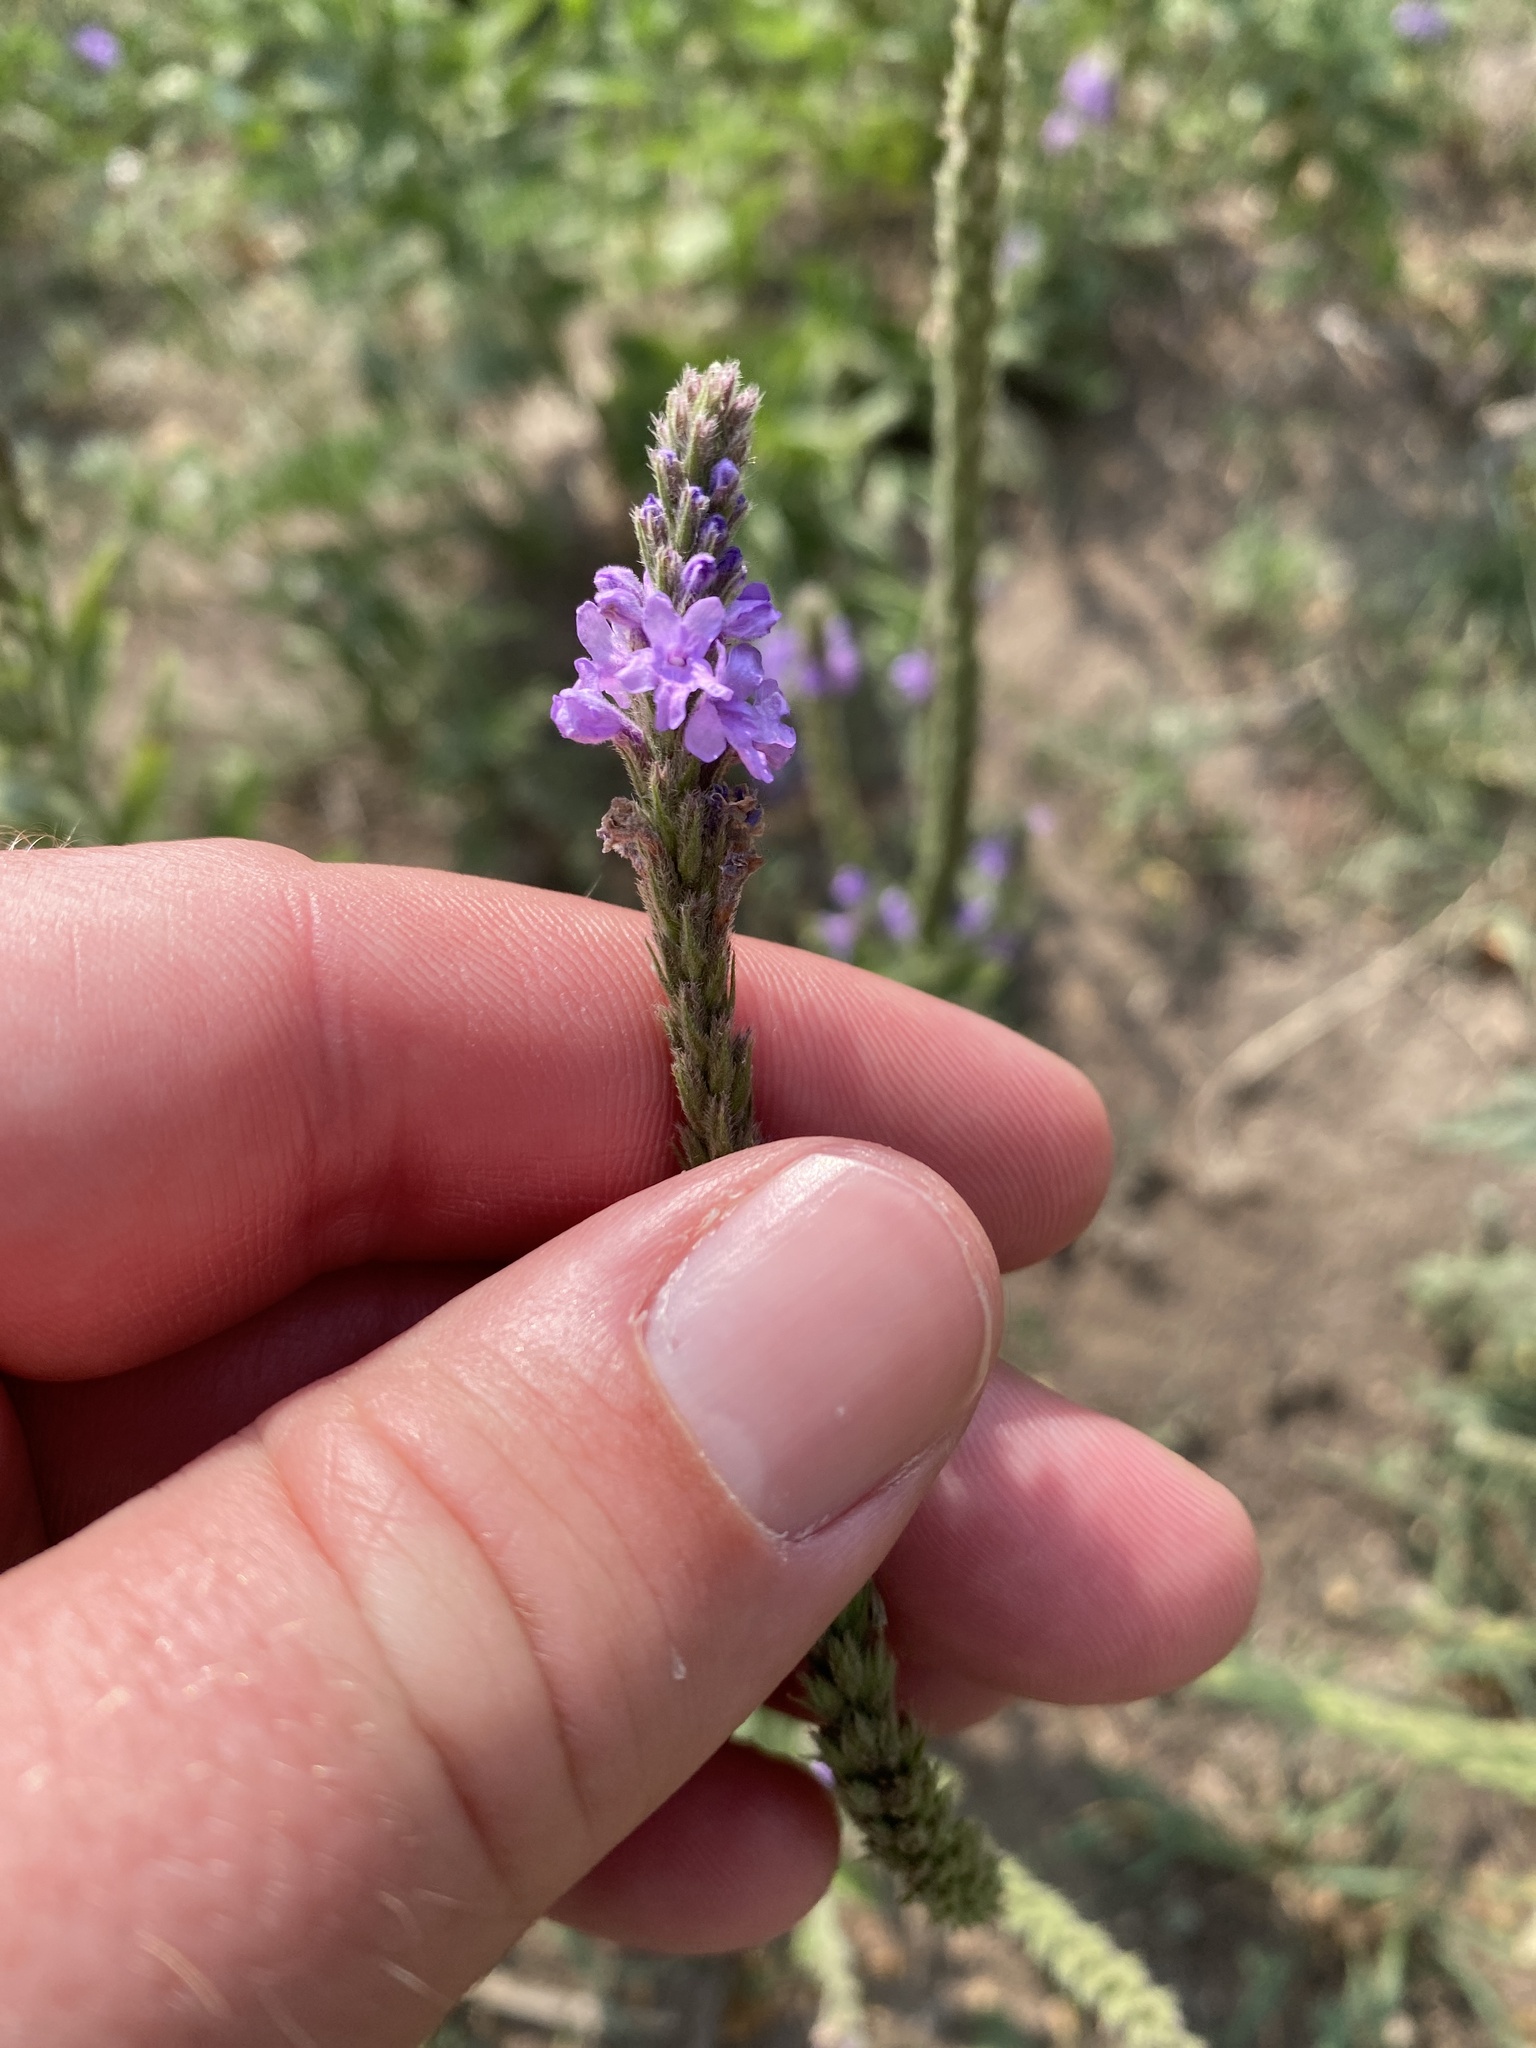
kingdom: Plantae
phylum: Tracheophyta
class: Magnoliopsida
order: Lamiales
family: Verbenaceae
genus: Verbena
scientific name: Verbena stricta
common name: Hoary vervain
